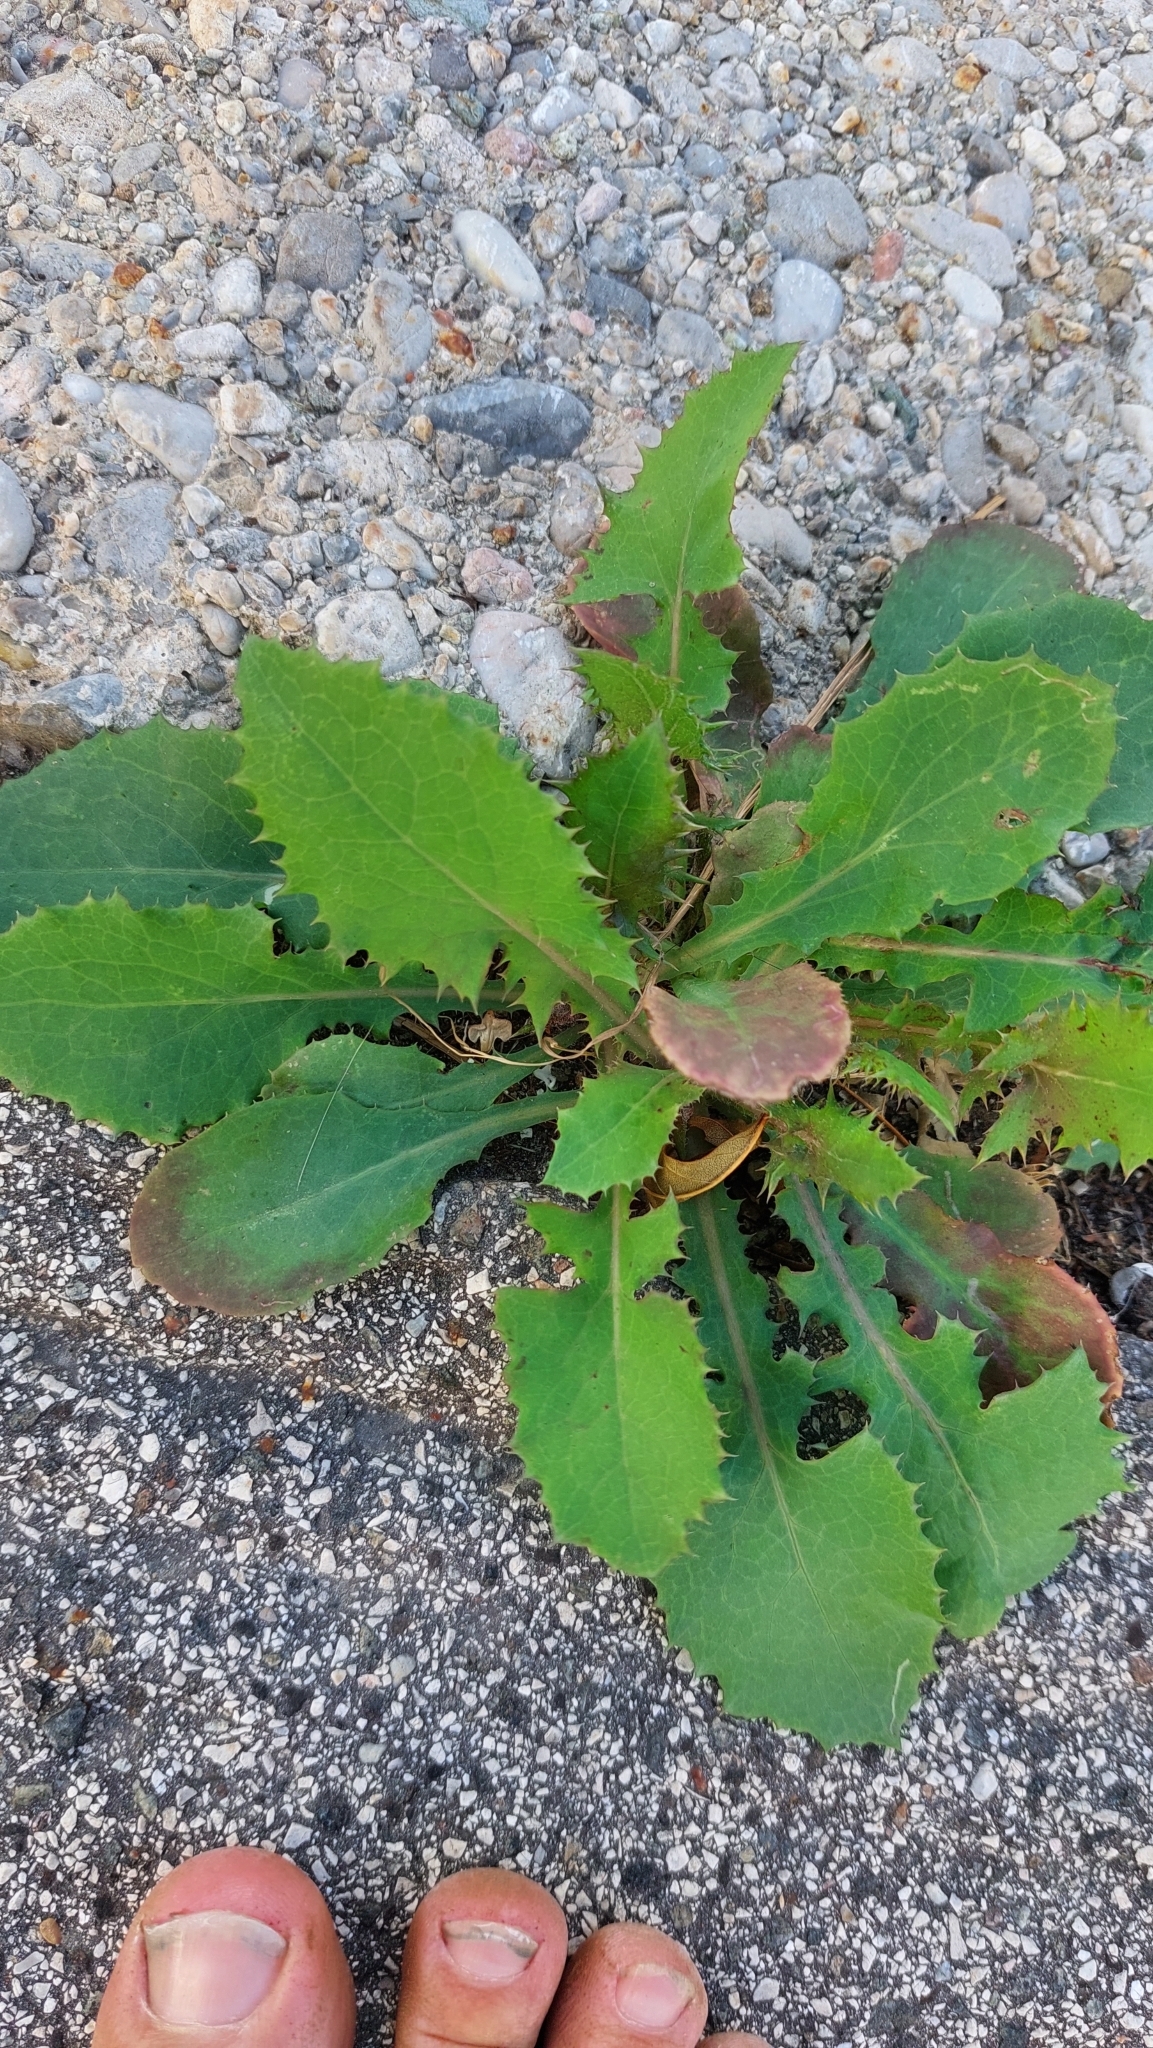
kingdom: Plantae
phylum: Tracheophyta
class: Magnoliopsida
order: Asterales
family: Asteraceae
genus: Sonchus
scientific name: Sonchus oleraceus
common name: Common sowthistle
